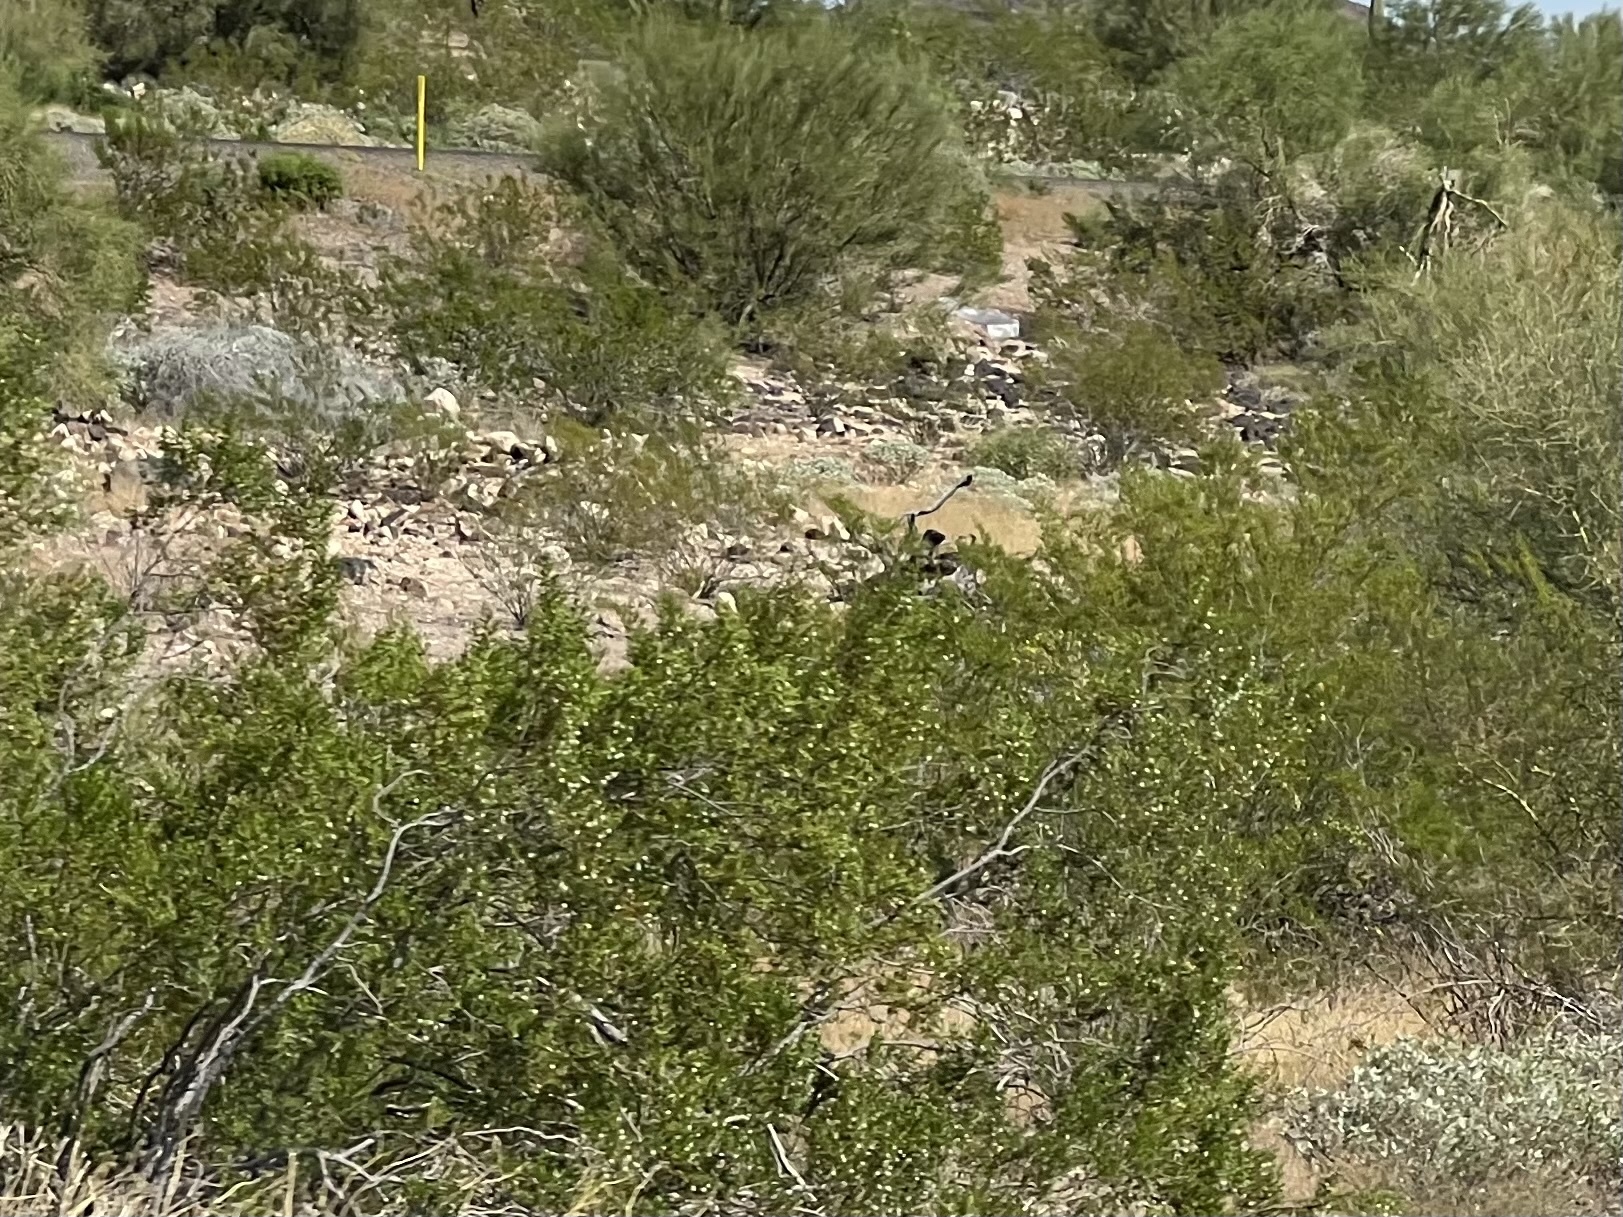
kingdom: Plantae
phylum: Tracheophyta
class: Magnoliopsida
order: Zygophyllales
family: Zygophyllaceae
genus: Larrea
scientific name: Larrea tridentata
